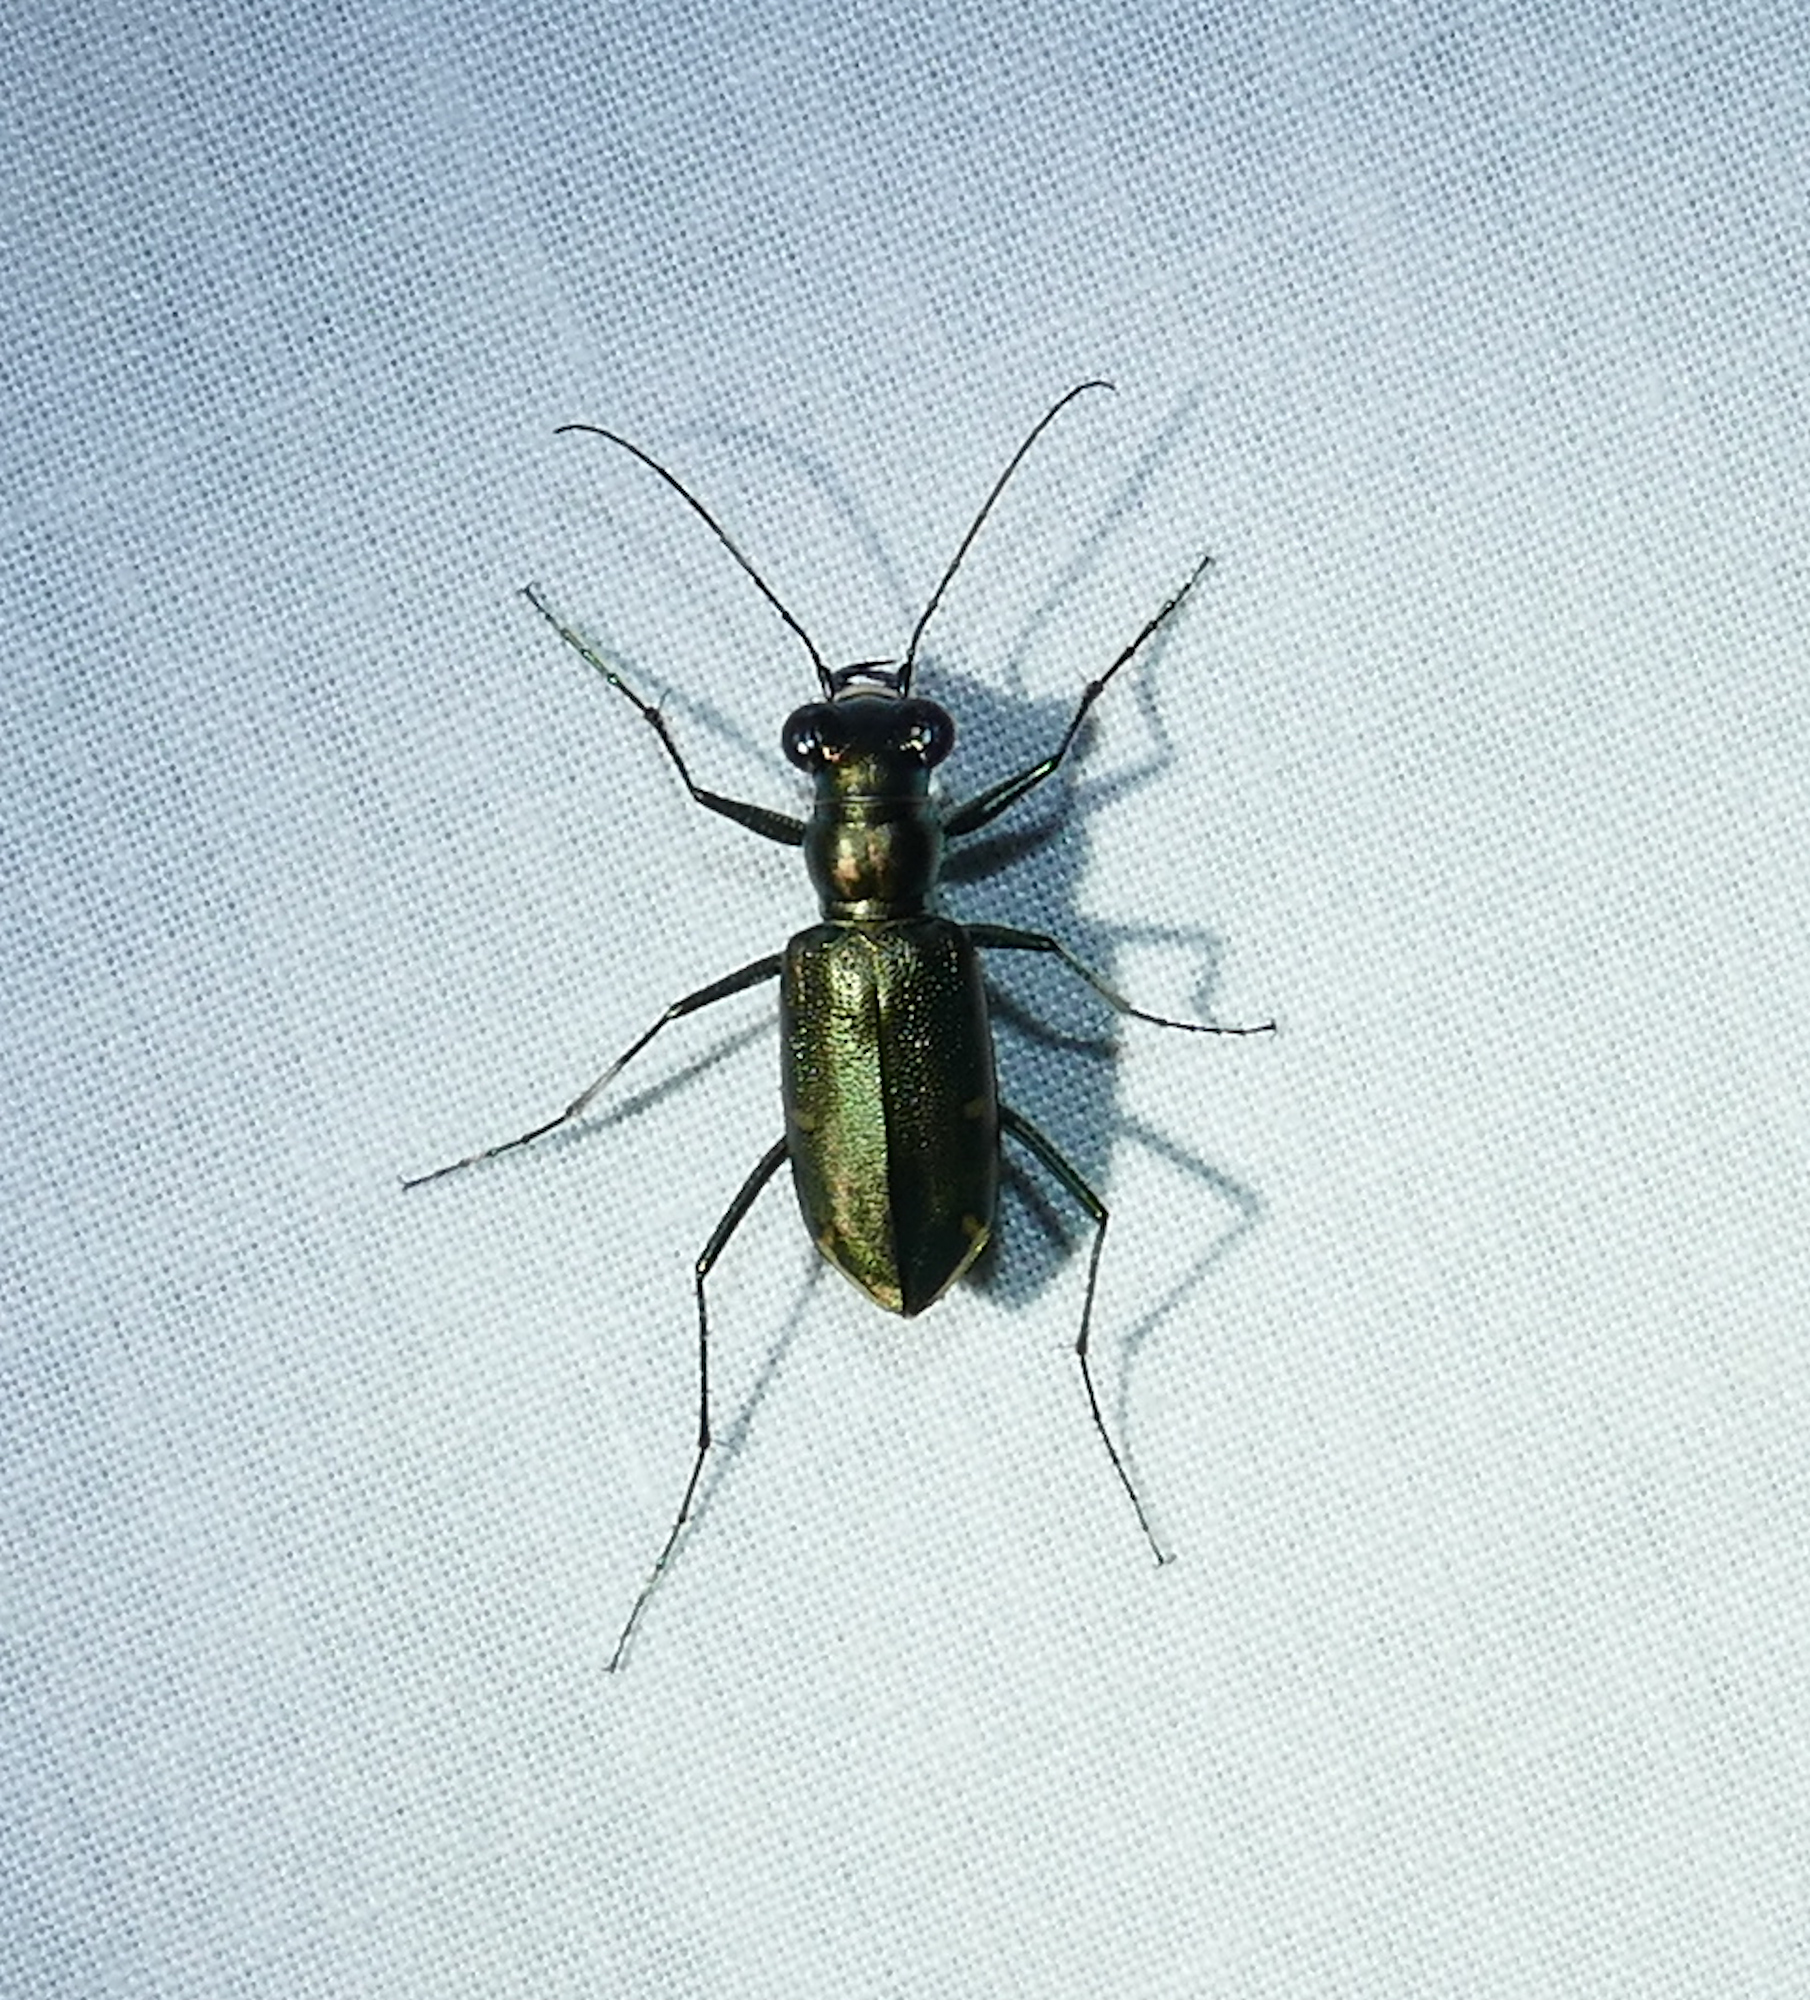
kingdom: Animalia
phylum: Arthropoda
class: Insecta
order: Coleoptera
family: Carabidae
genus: Eunota
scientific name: Eunota severa
